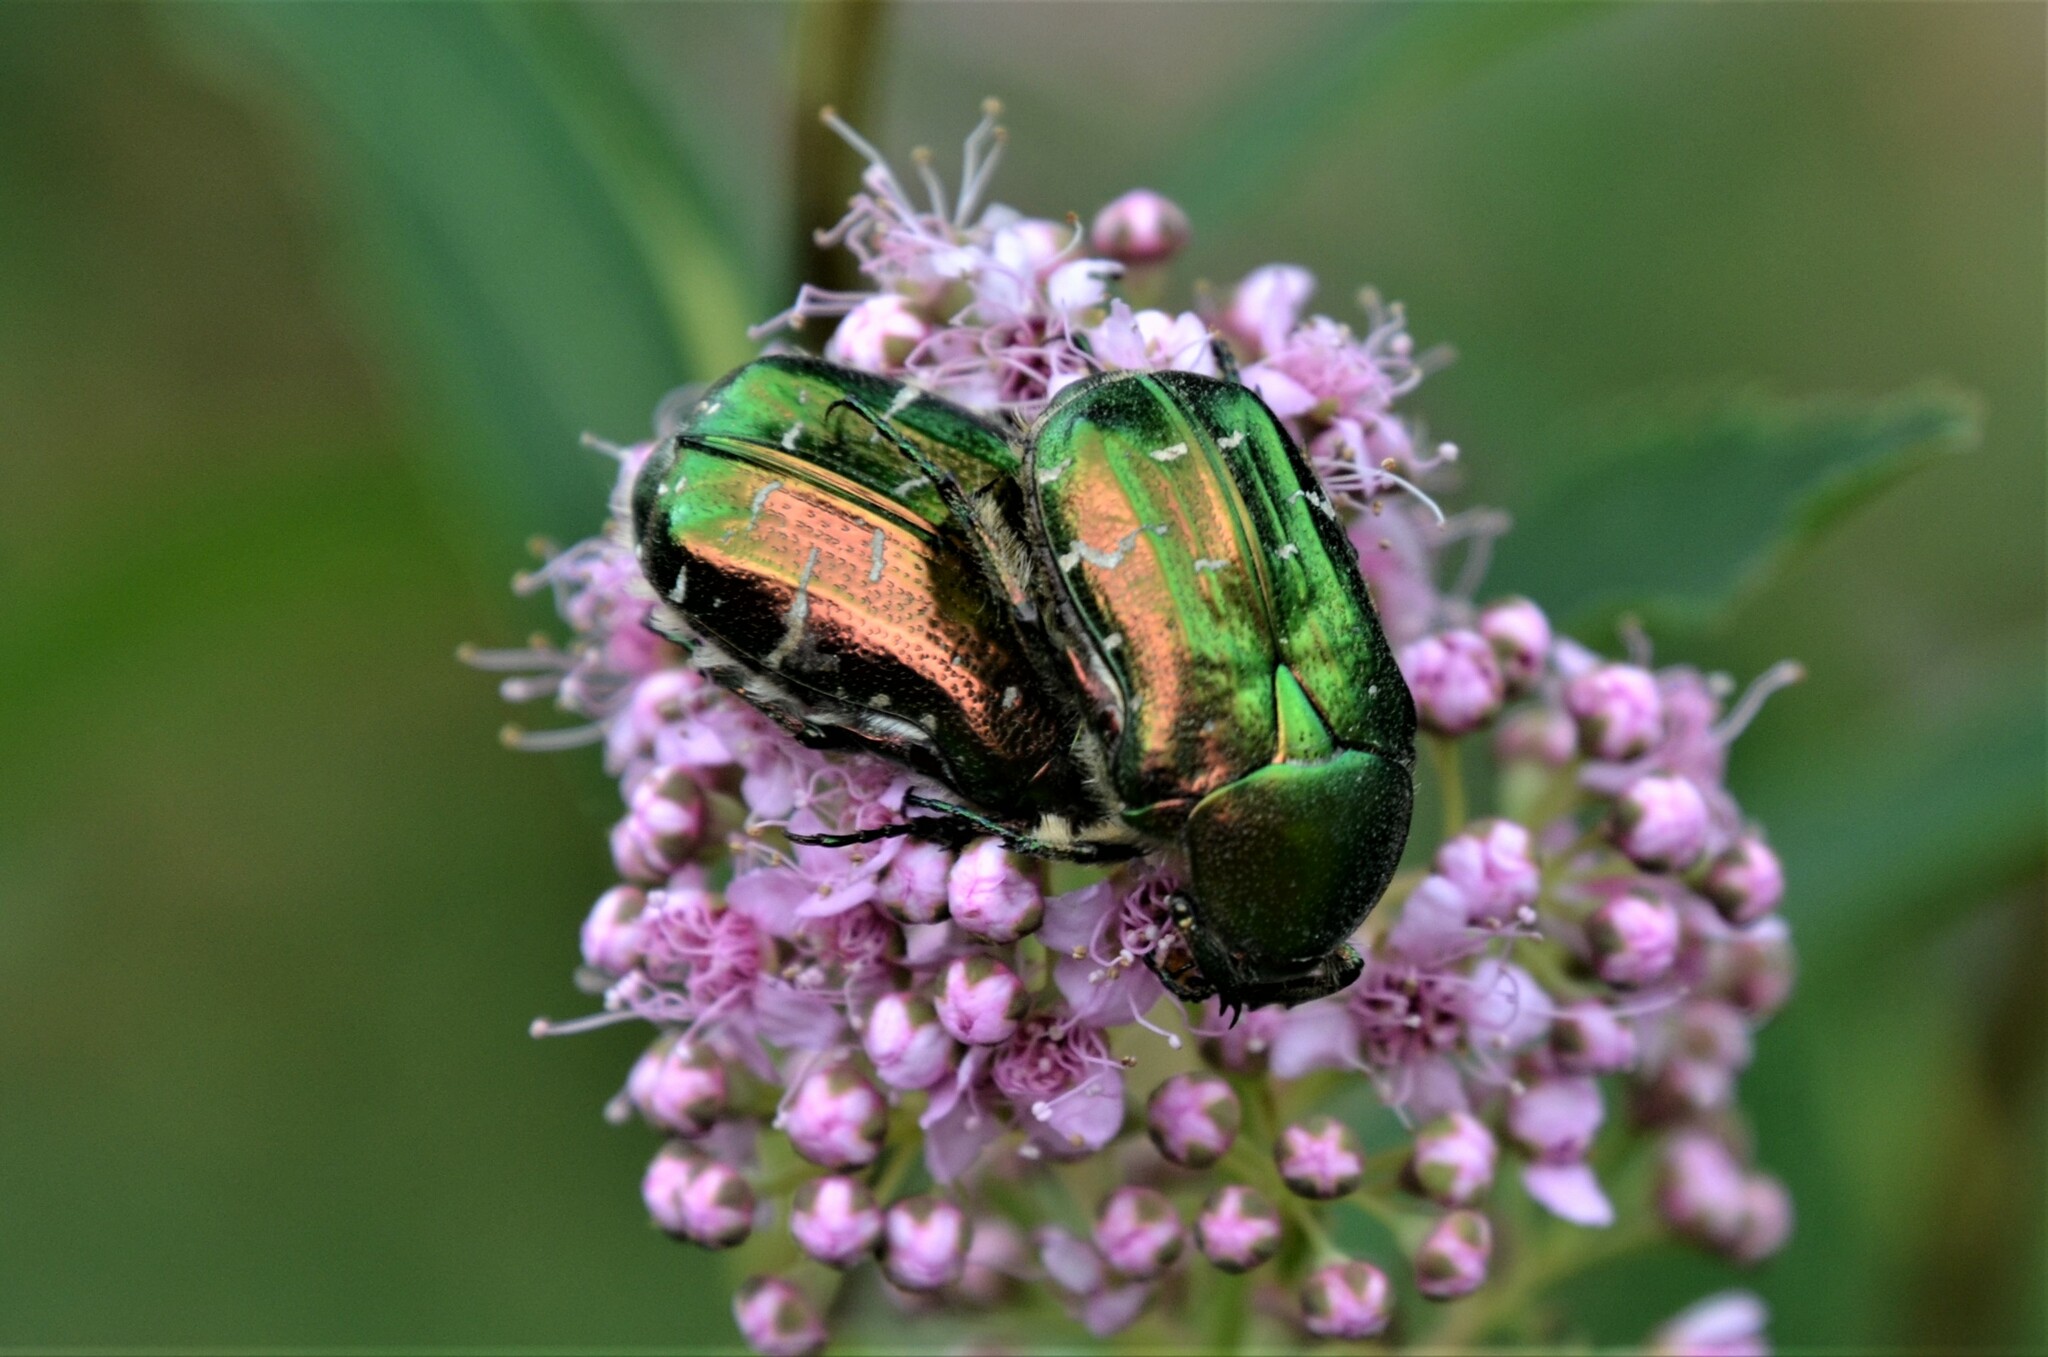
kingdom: Animalia
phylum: Arthropoda
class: Insecta
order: Coleoptera
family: Scarabaeidae
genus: Cetonia
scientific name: Cetonia aurata
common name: Rose chafer
